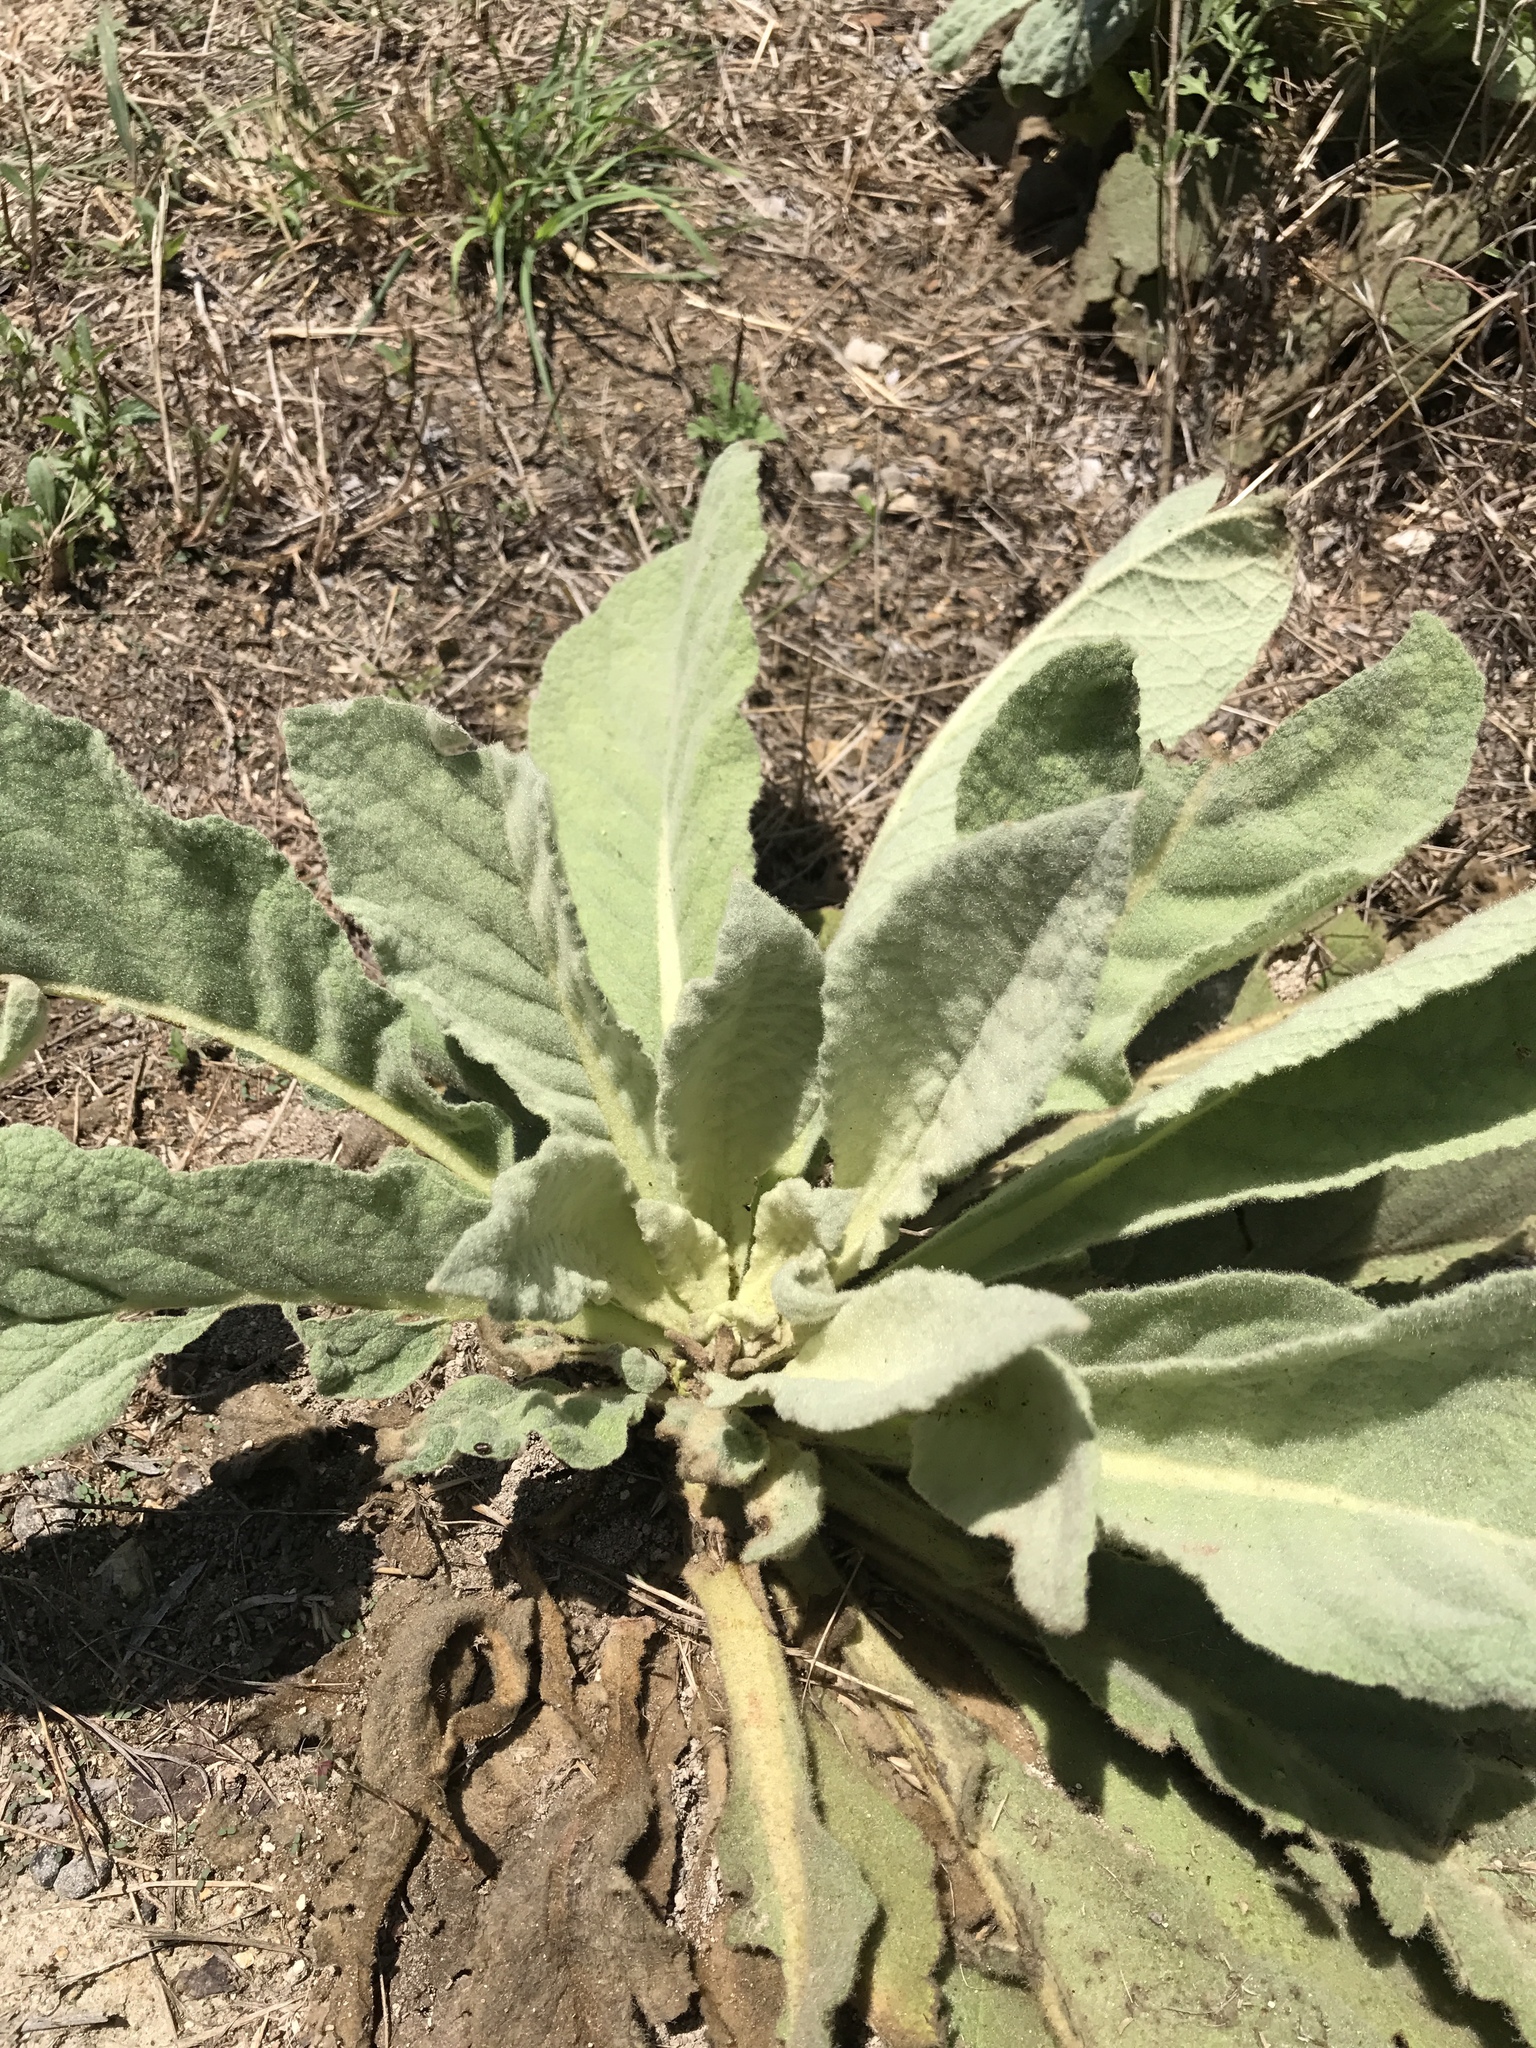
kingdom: Plantae
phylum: Tracheophyta
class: Magnoliopsida
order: Lamiales
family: Scrophulariaceae
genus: Verbascum
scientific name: Verbascum thapsus
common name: Common mullein
